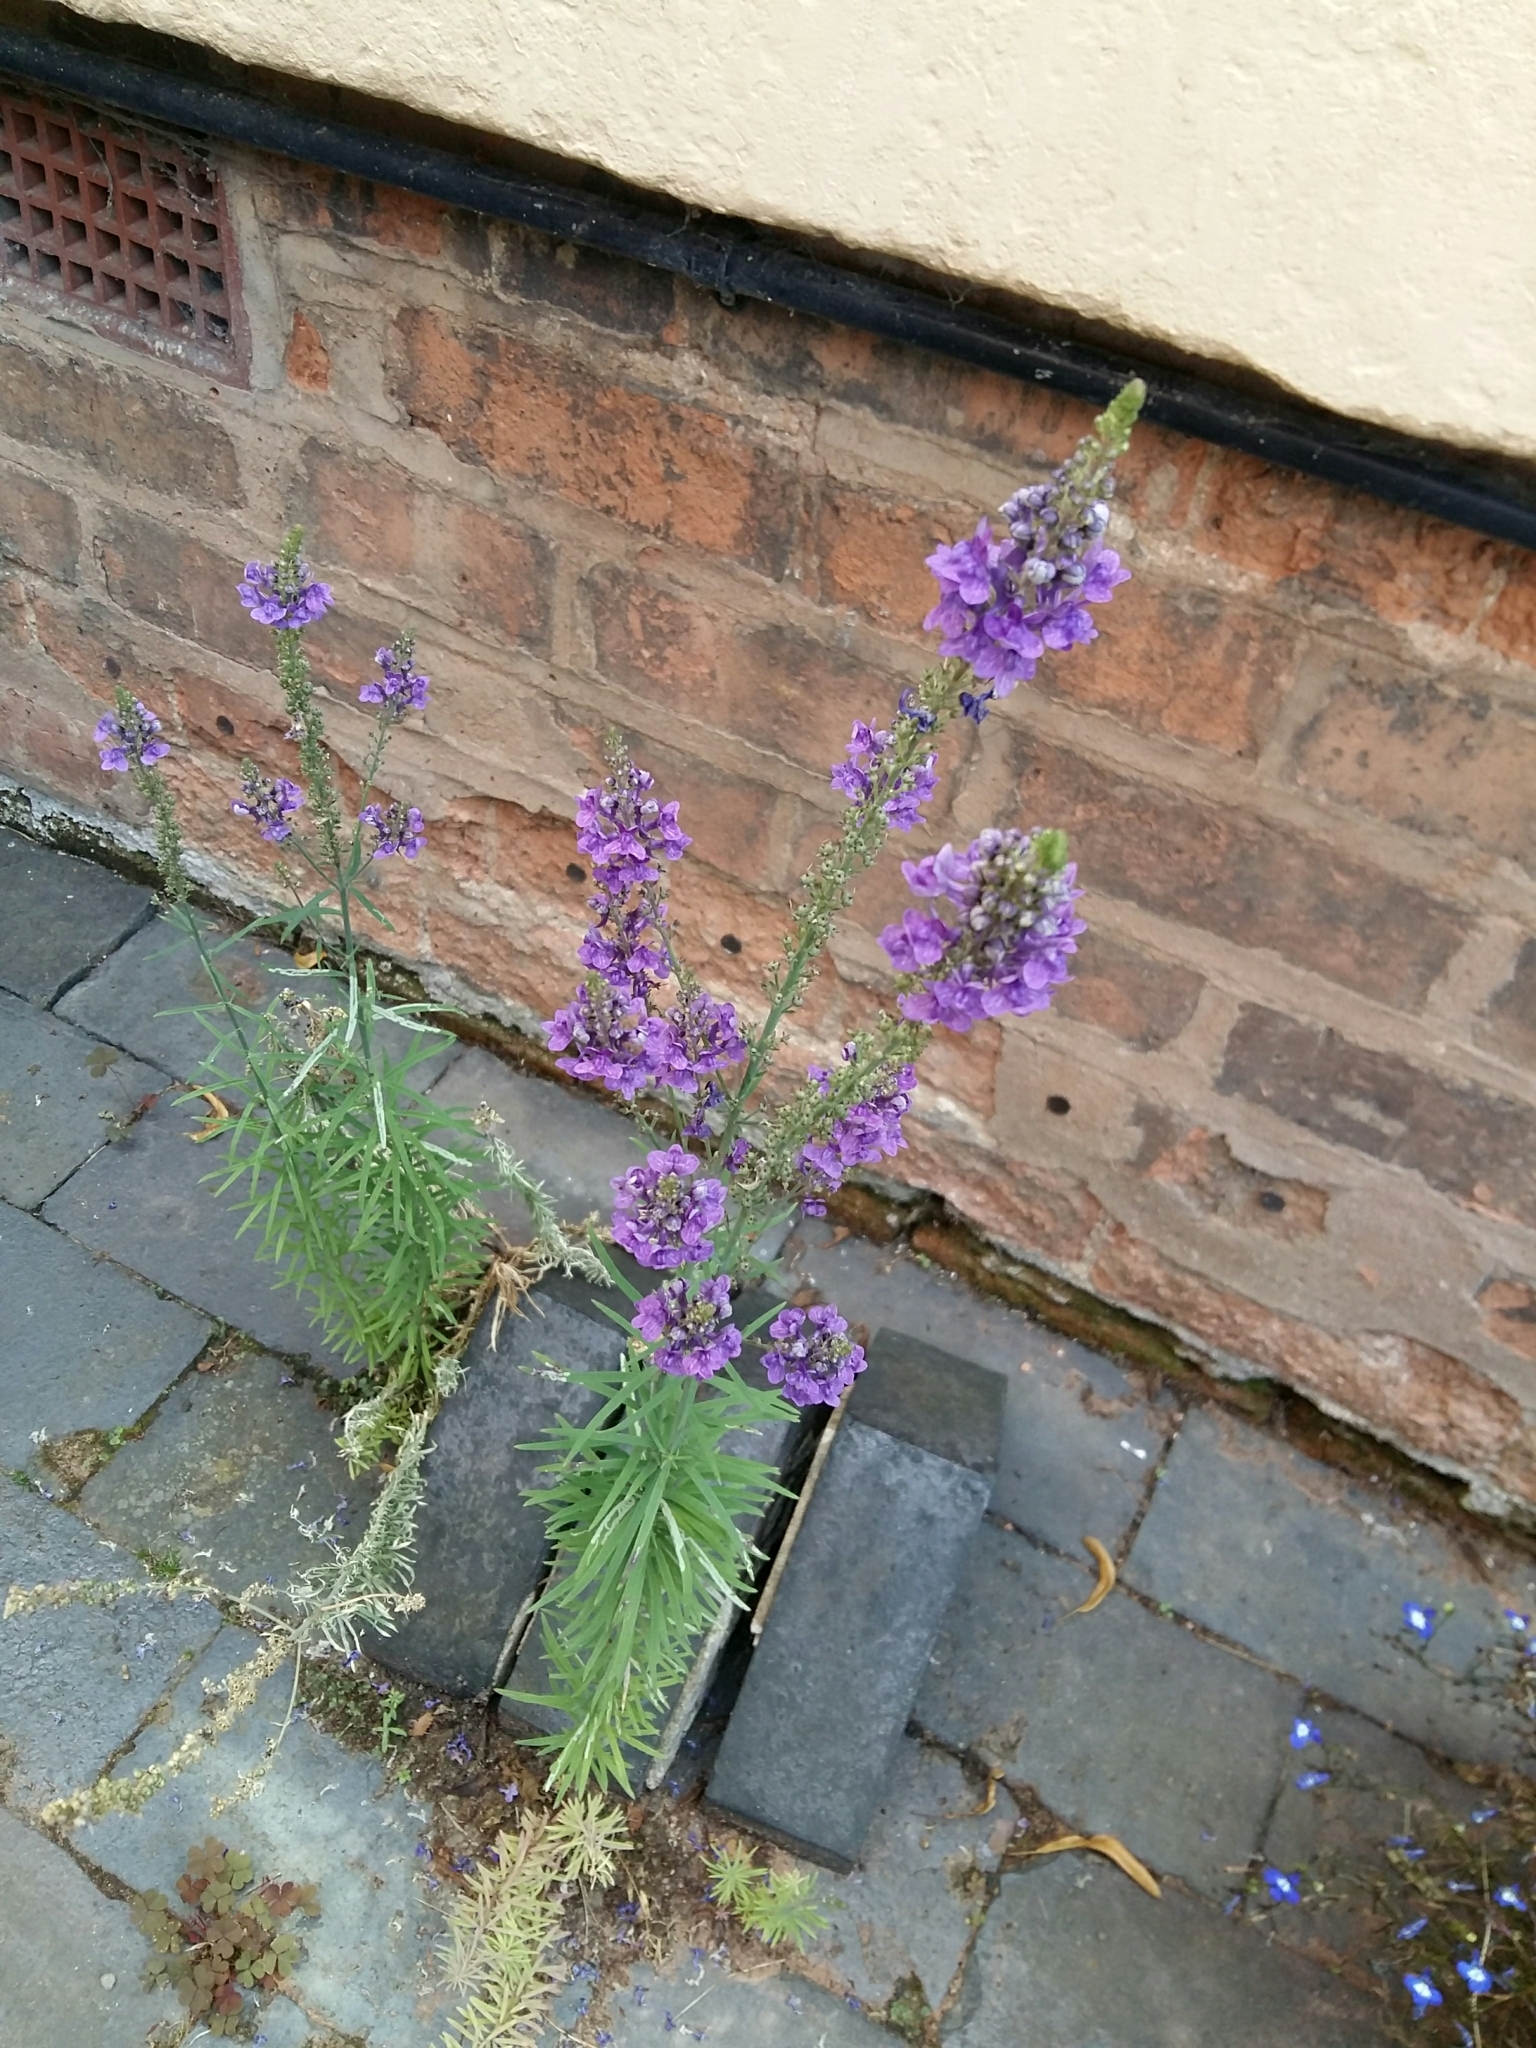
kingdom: Plantae
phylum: Tracheophyta
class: Magnoliopsida
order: Lamiales
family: Plantaginaceae
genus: Linaria
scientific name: Linaria purpurea
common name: Purple toadflax
